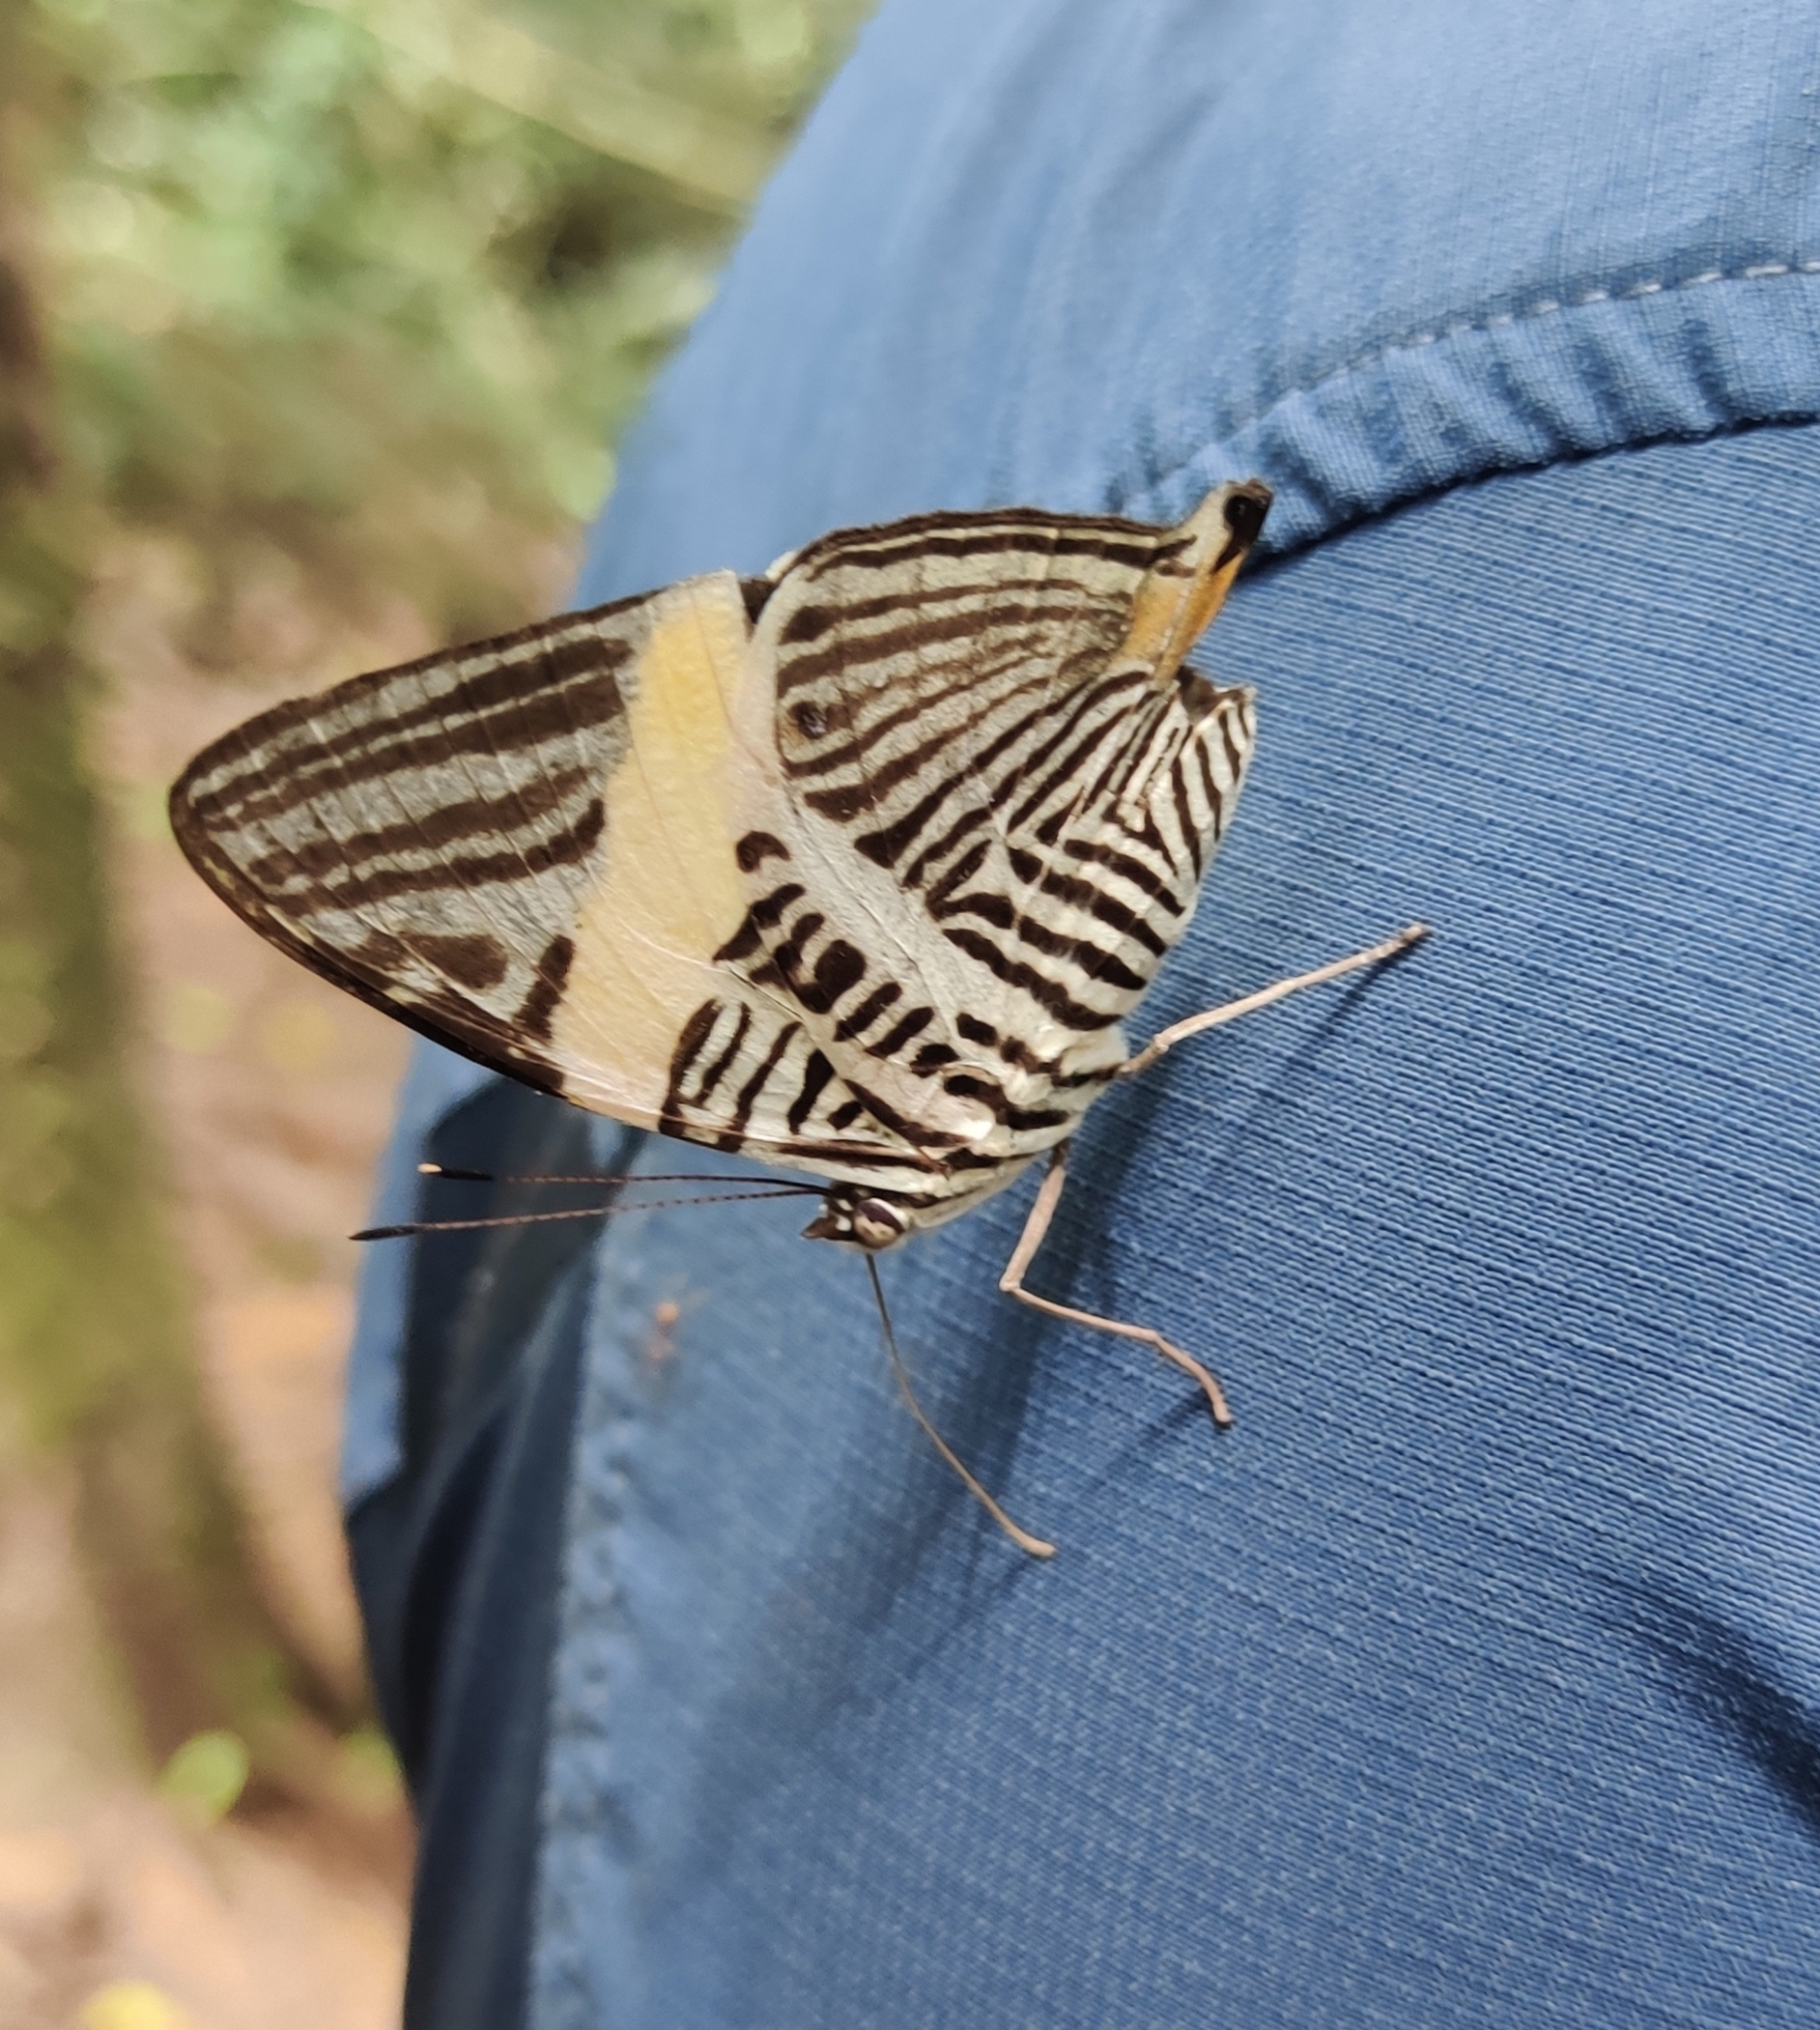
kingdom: Animalia
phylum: Arthropoda
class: Insecta
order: Lepidoptera
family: Nymphalidae
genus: Colobura
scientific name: Colobura annulata
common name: New beauty
